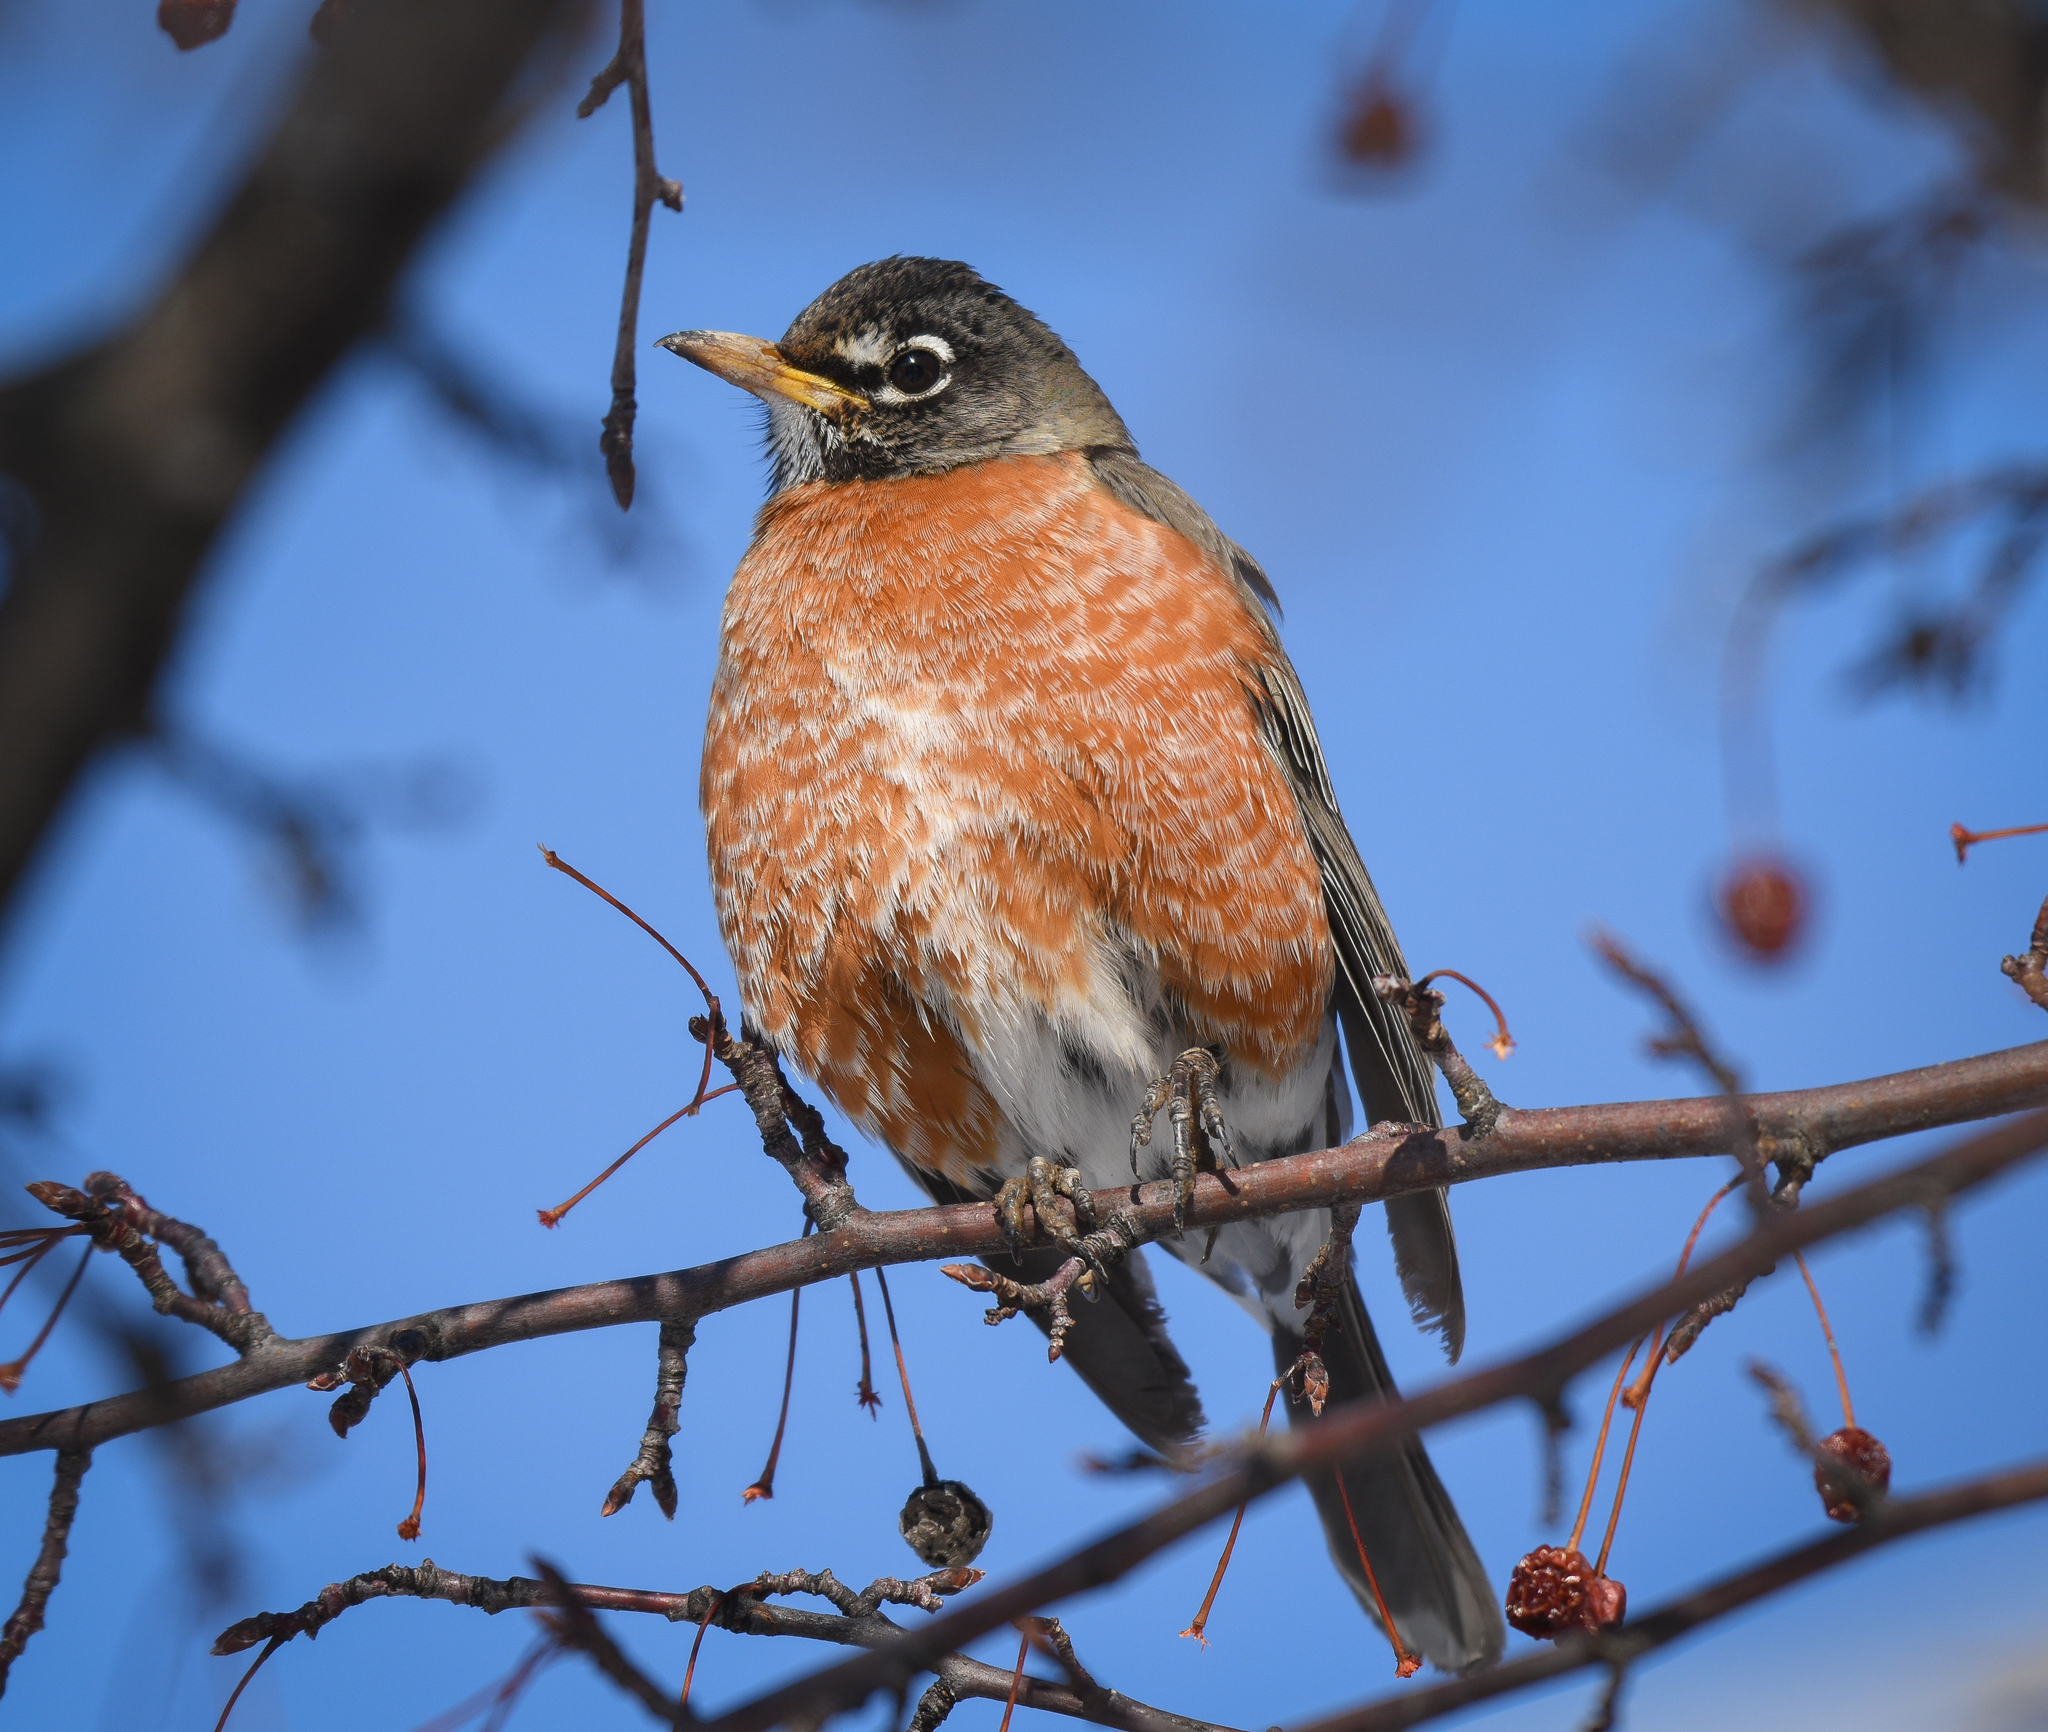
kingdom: Animalia
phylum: Chordata
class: Aves
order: Passeriformes
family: Turdidae
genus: Turdus
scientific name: Turdus migratorius
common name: American robin
